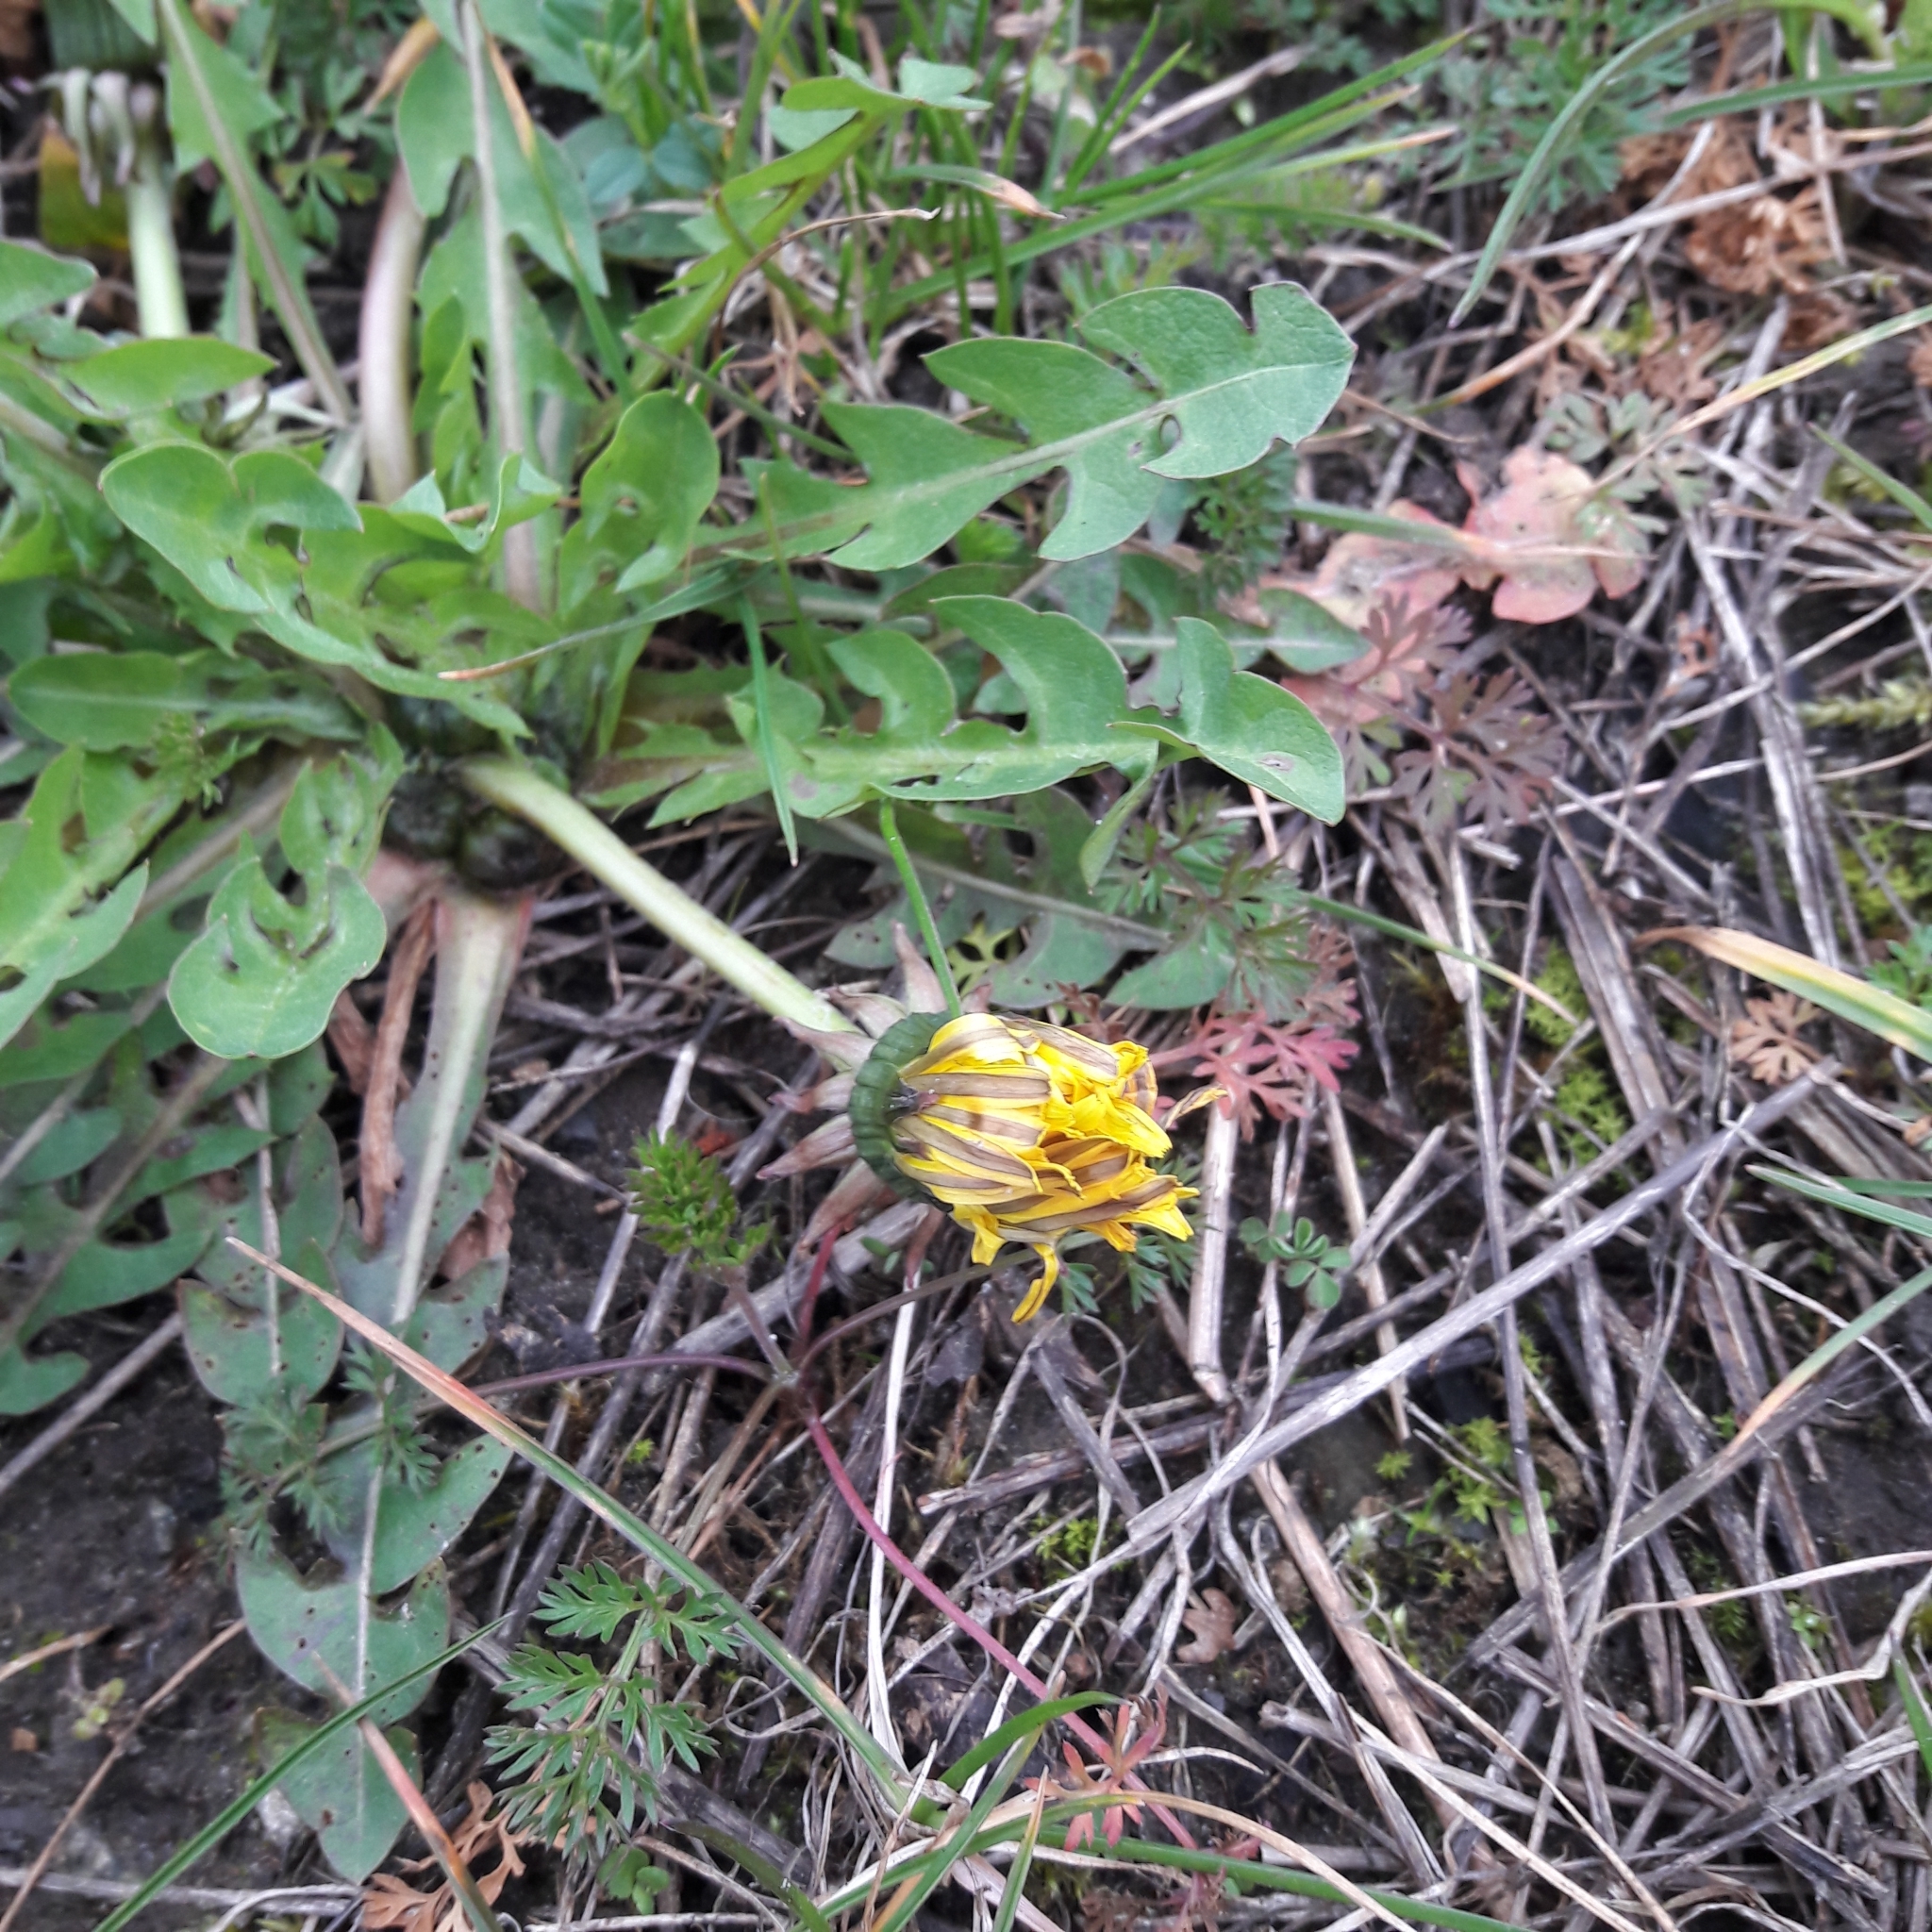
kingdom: Plantae
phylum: Tracheophyta
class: Magnoliopsida
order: Asterales
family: Asteraceae
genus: Taraxacum
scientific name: Taraxacum officinale
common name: Common dandelion
